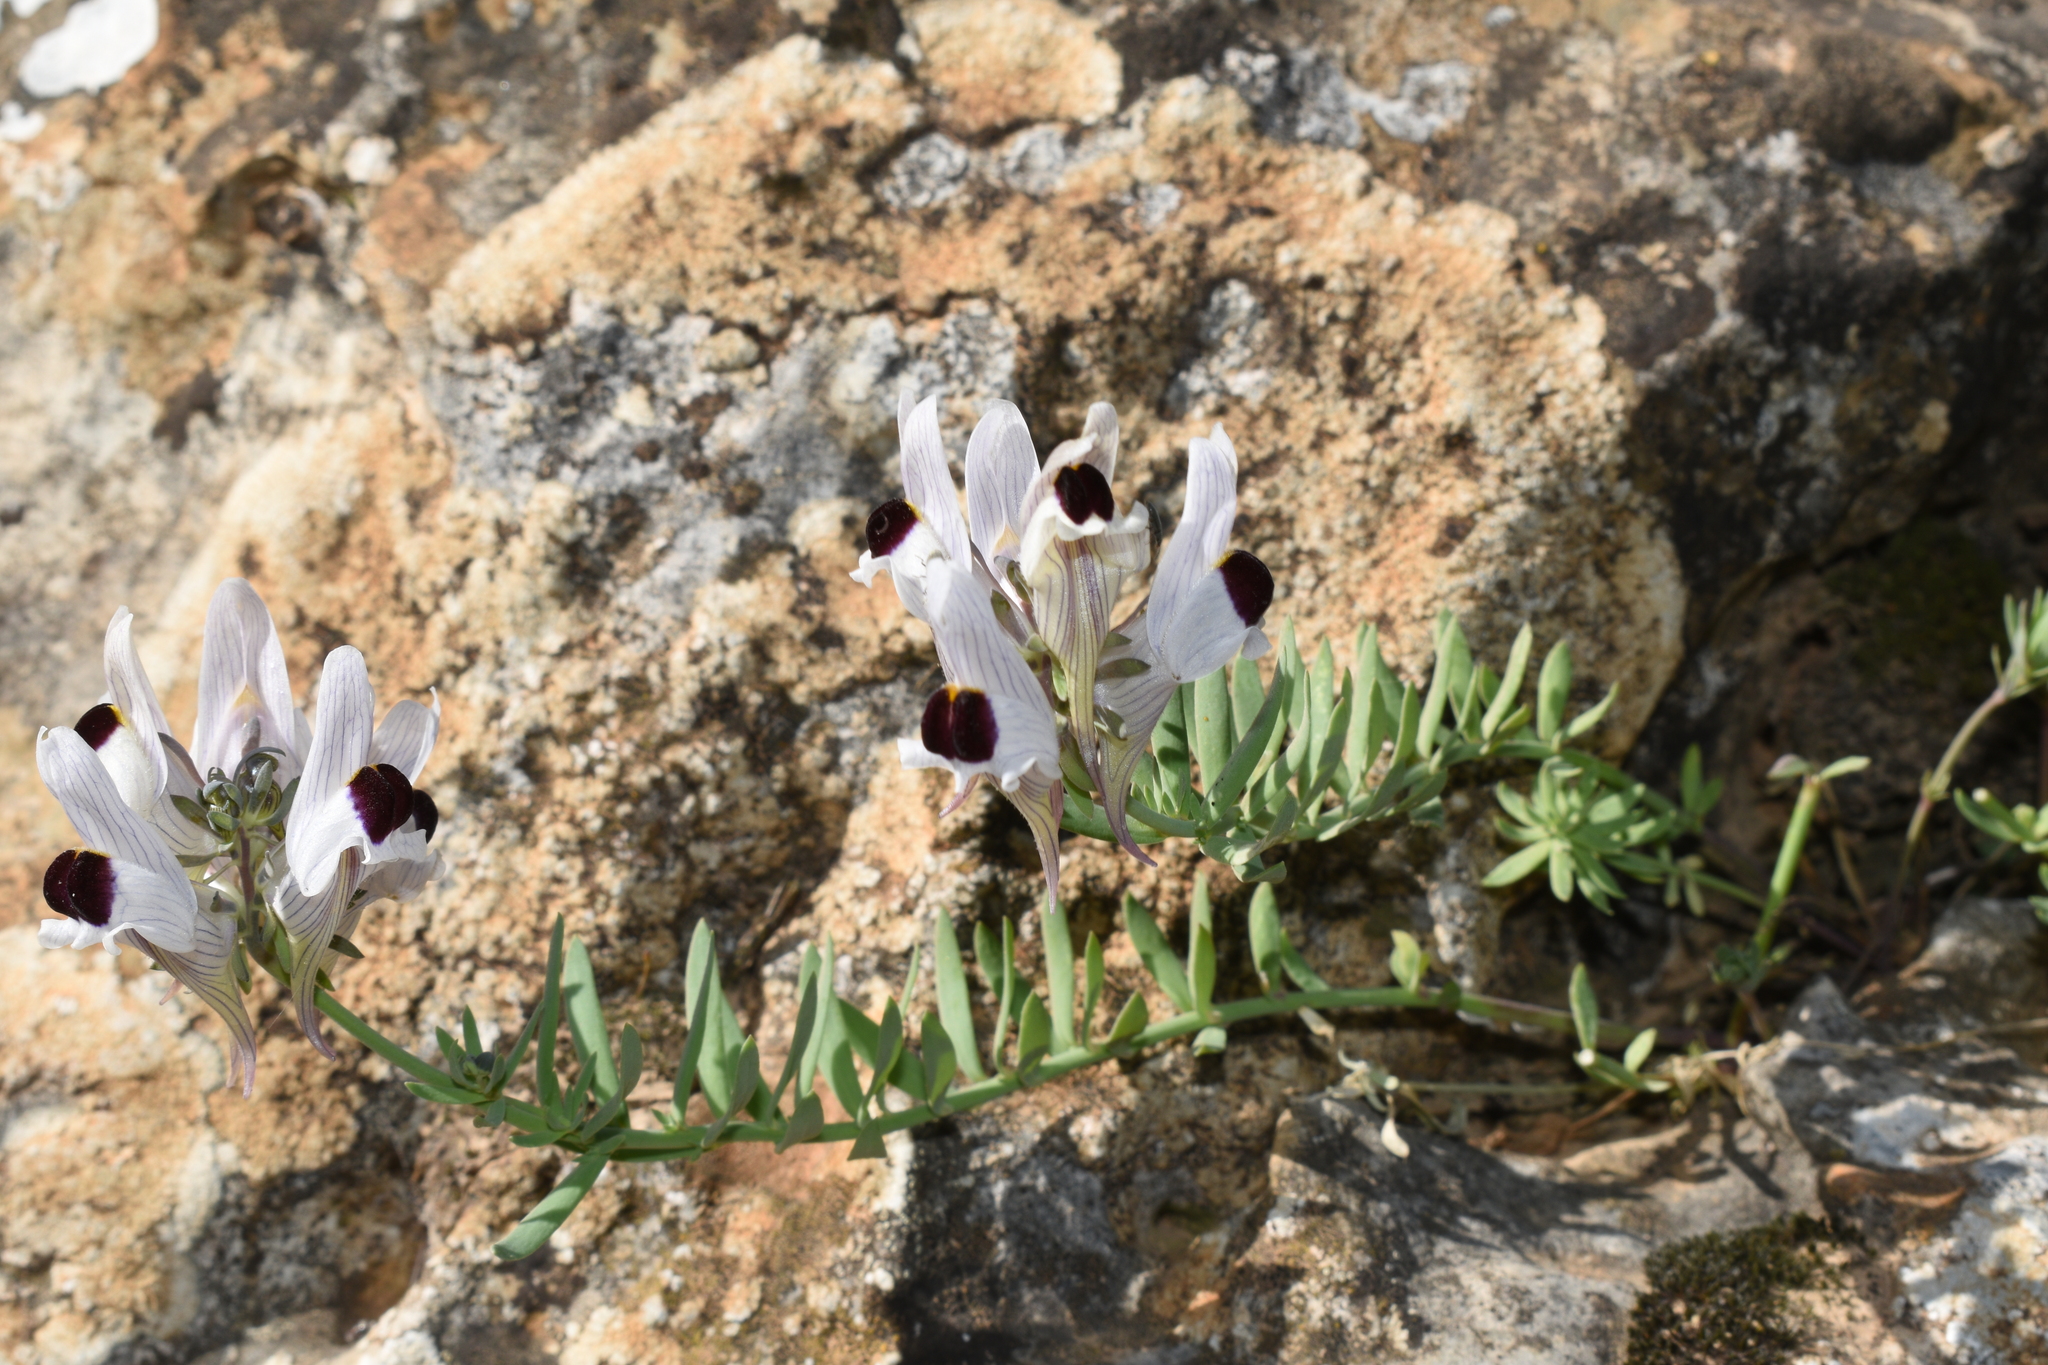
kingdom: Plantae
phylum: Tracheophyta
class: Magnoliopsida
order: Lamiales
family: Plantaginaceae
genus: Linaria
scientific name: Linaria verticillata
